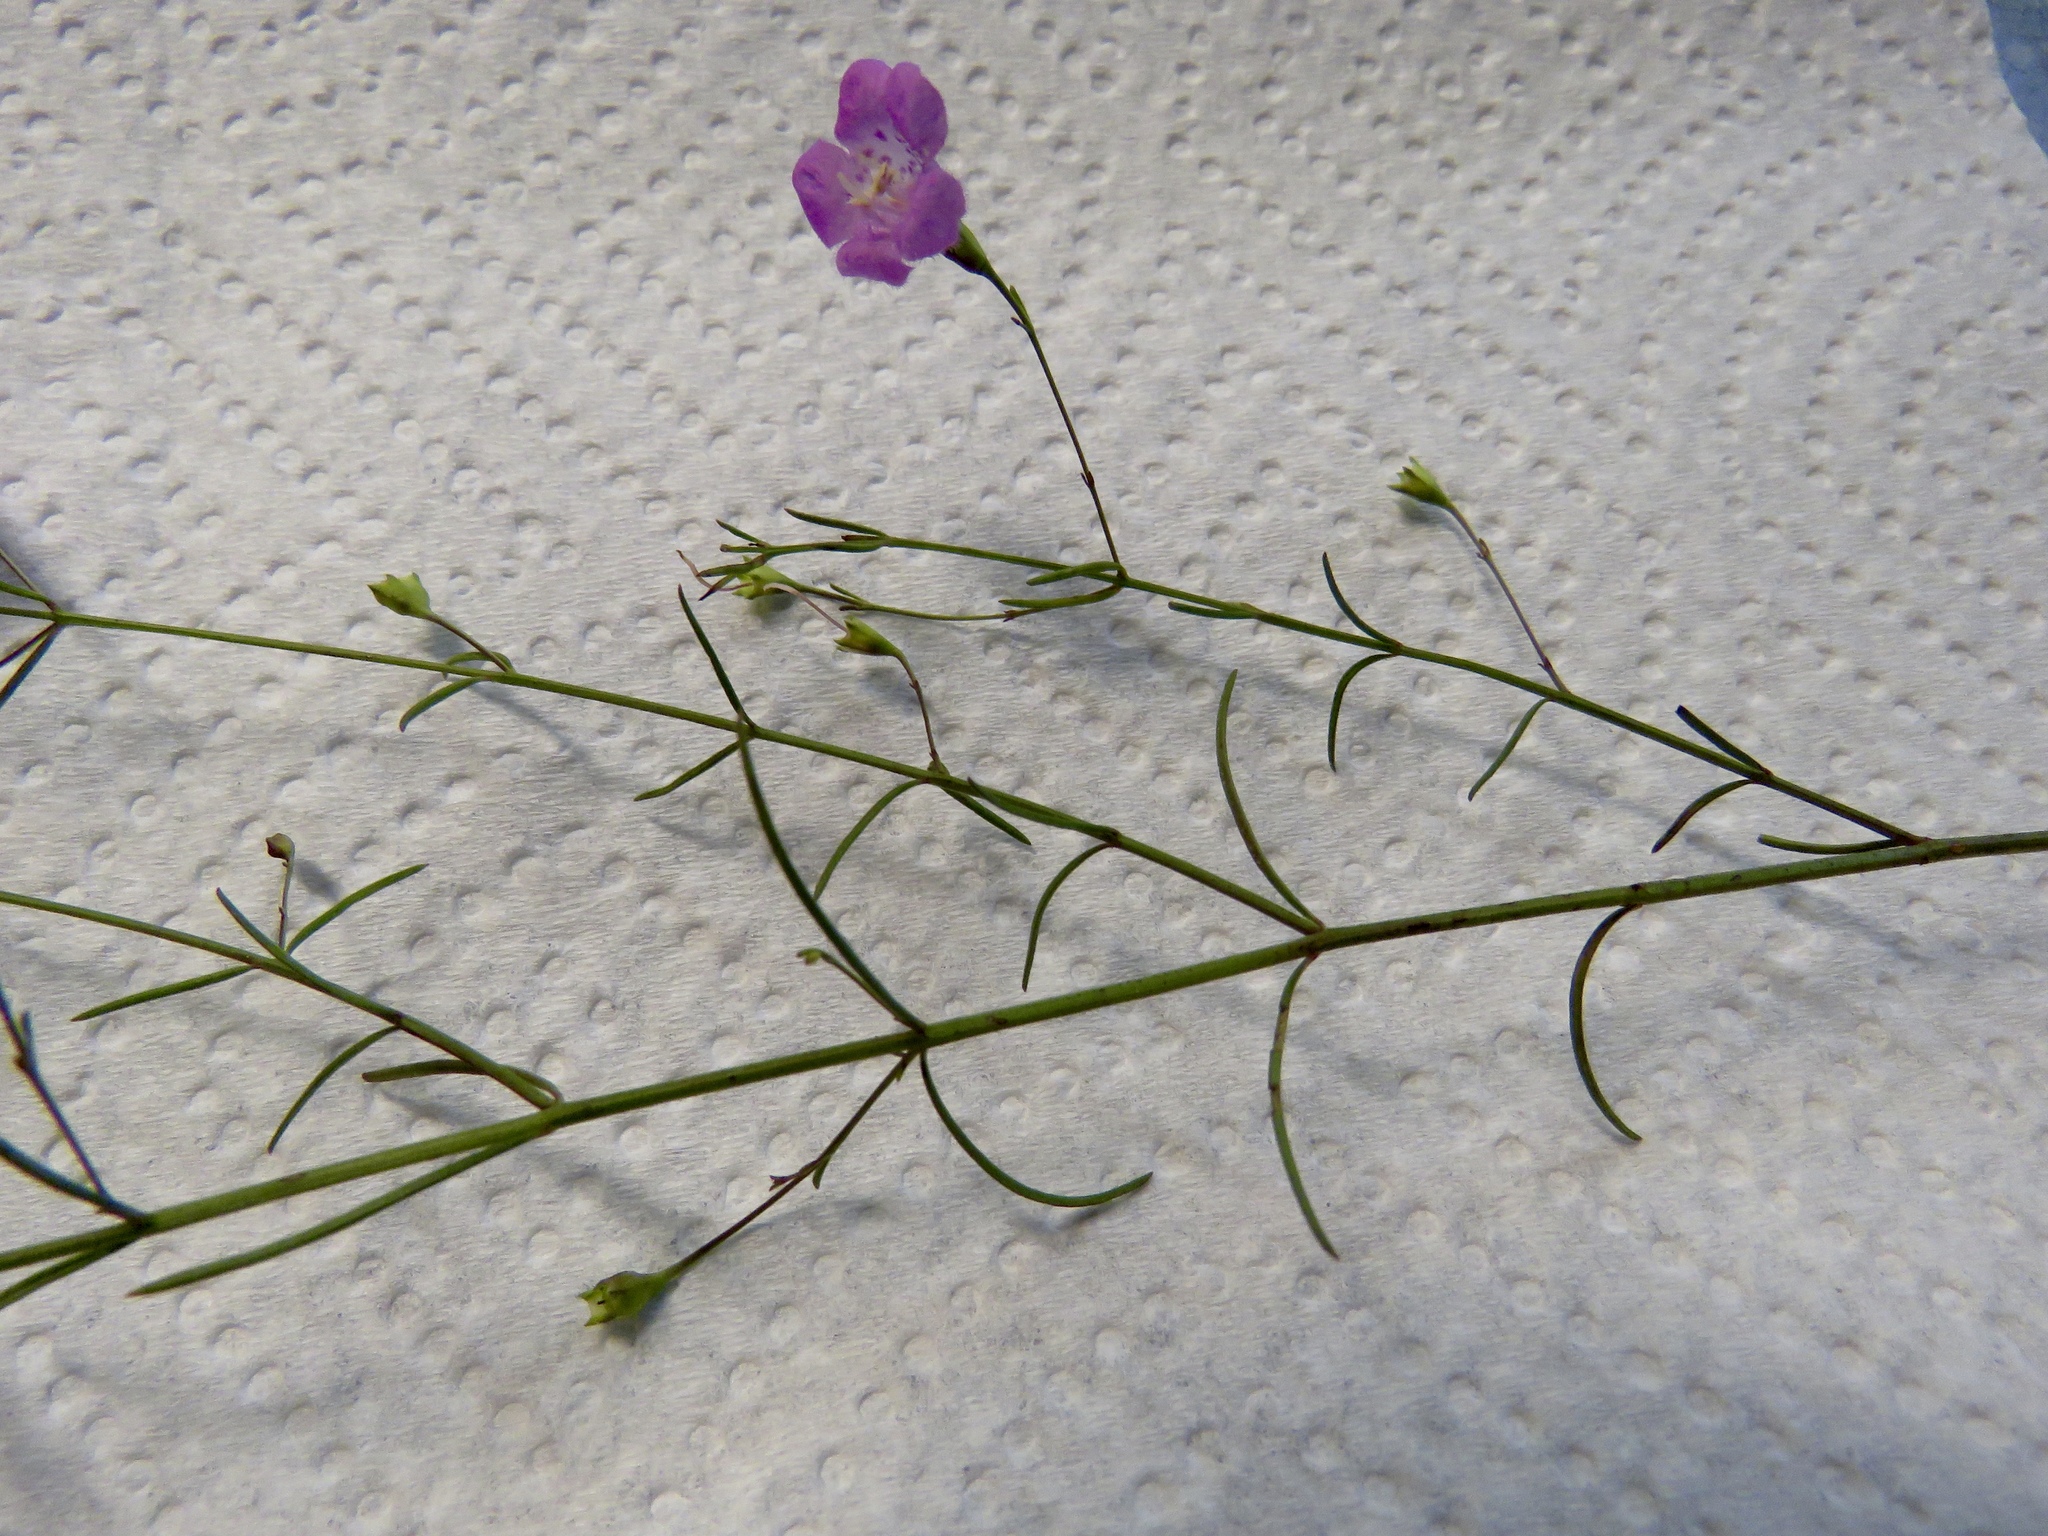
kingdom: Plantae
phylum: Tracheophyta
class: Magnoliopsida
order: Lamiales
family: Orobanchaceae
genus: Agalinis
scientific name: Agalinis gattingeri
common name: Gattinger's agalinis
